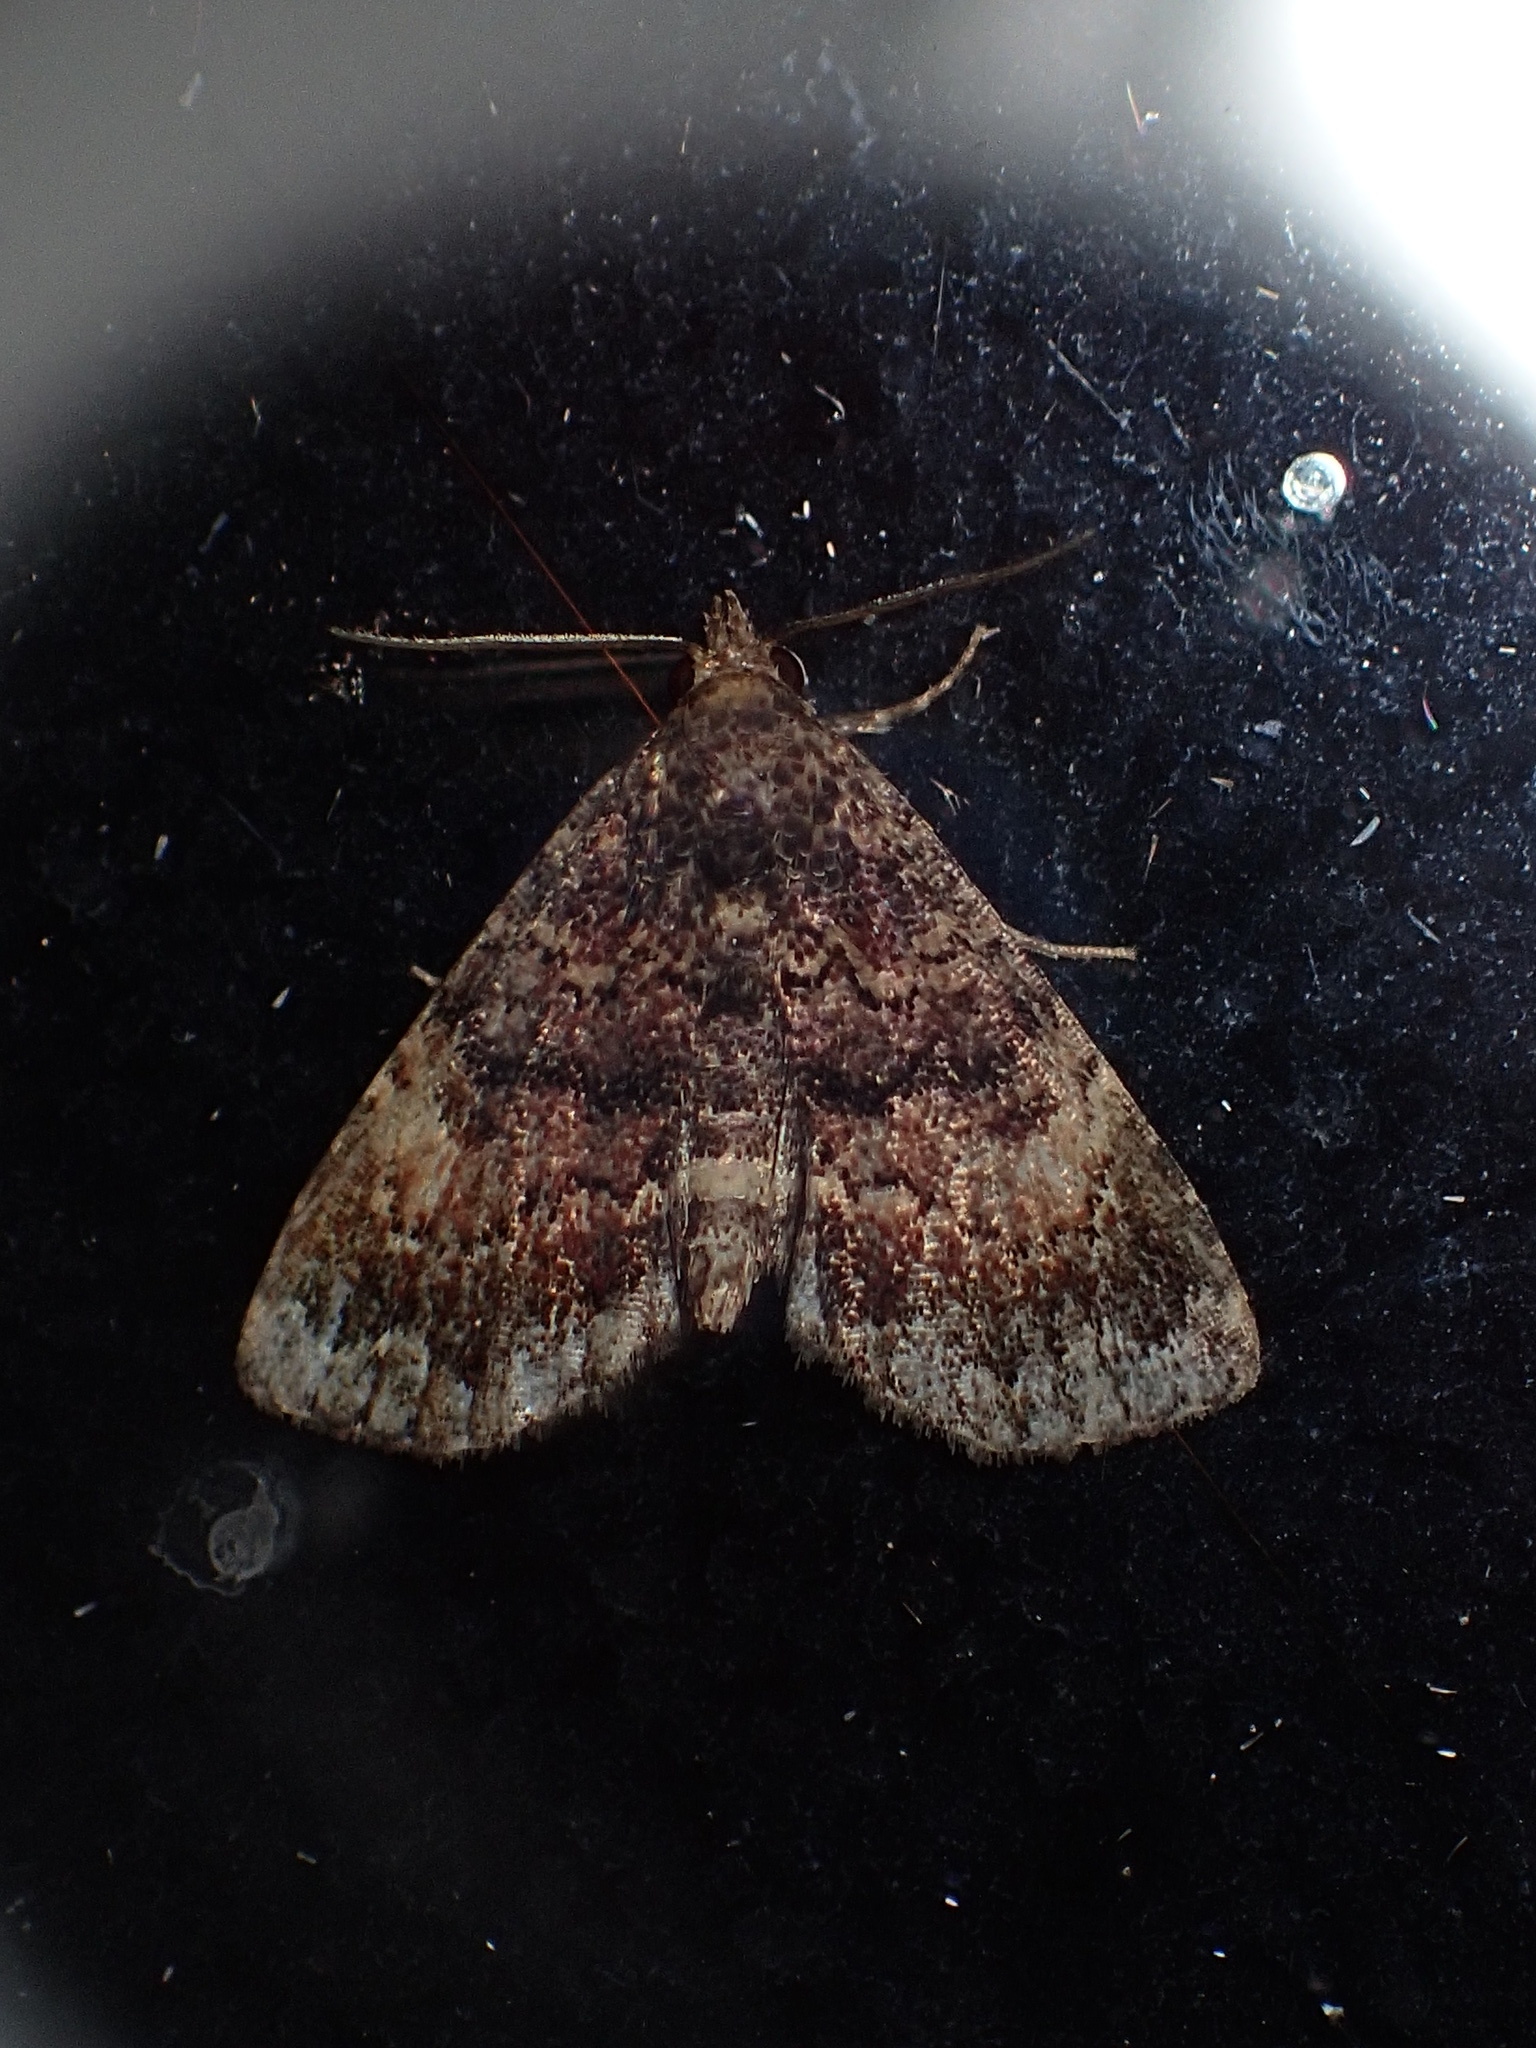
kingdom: Animalia
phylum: Arthropoda
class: Insecta
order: Lepidoptera
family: Erebidae
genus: Metalectra
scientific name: Metalectra richardsi
